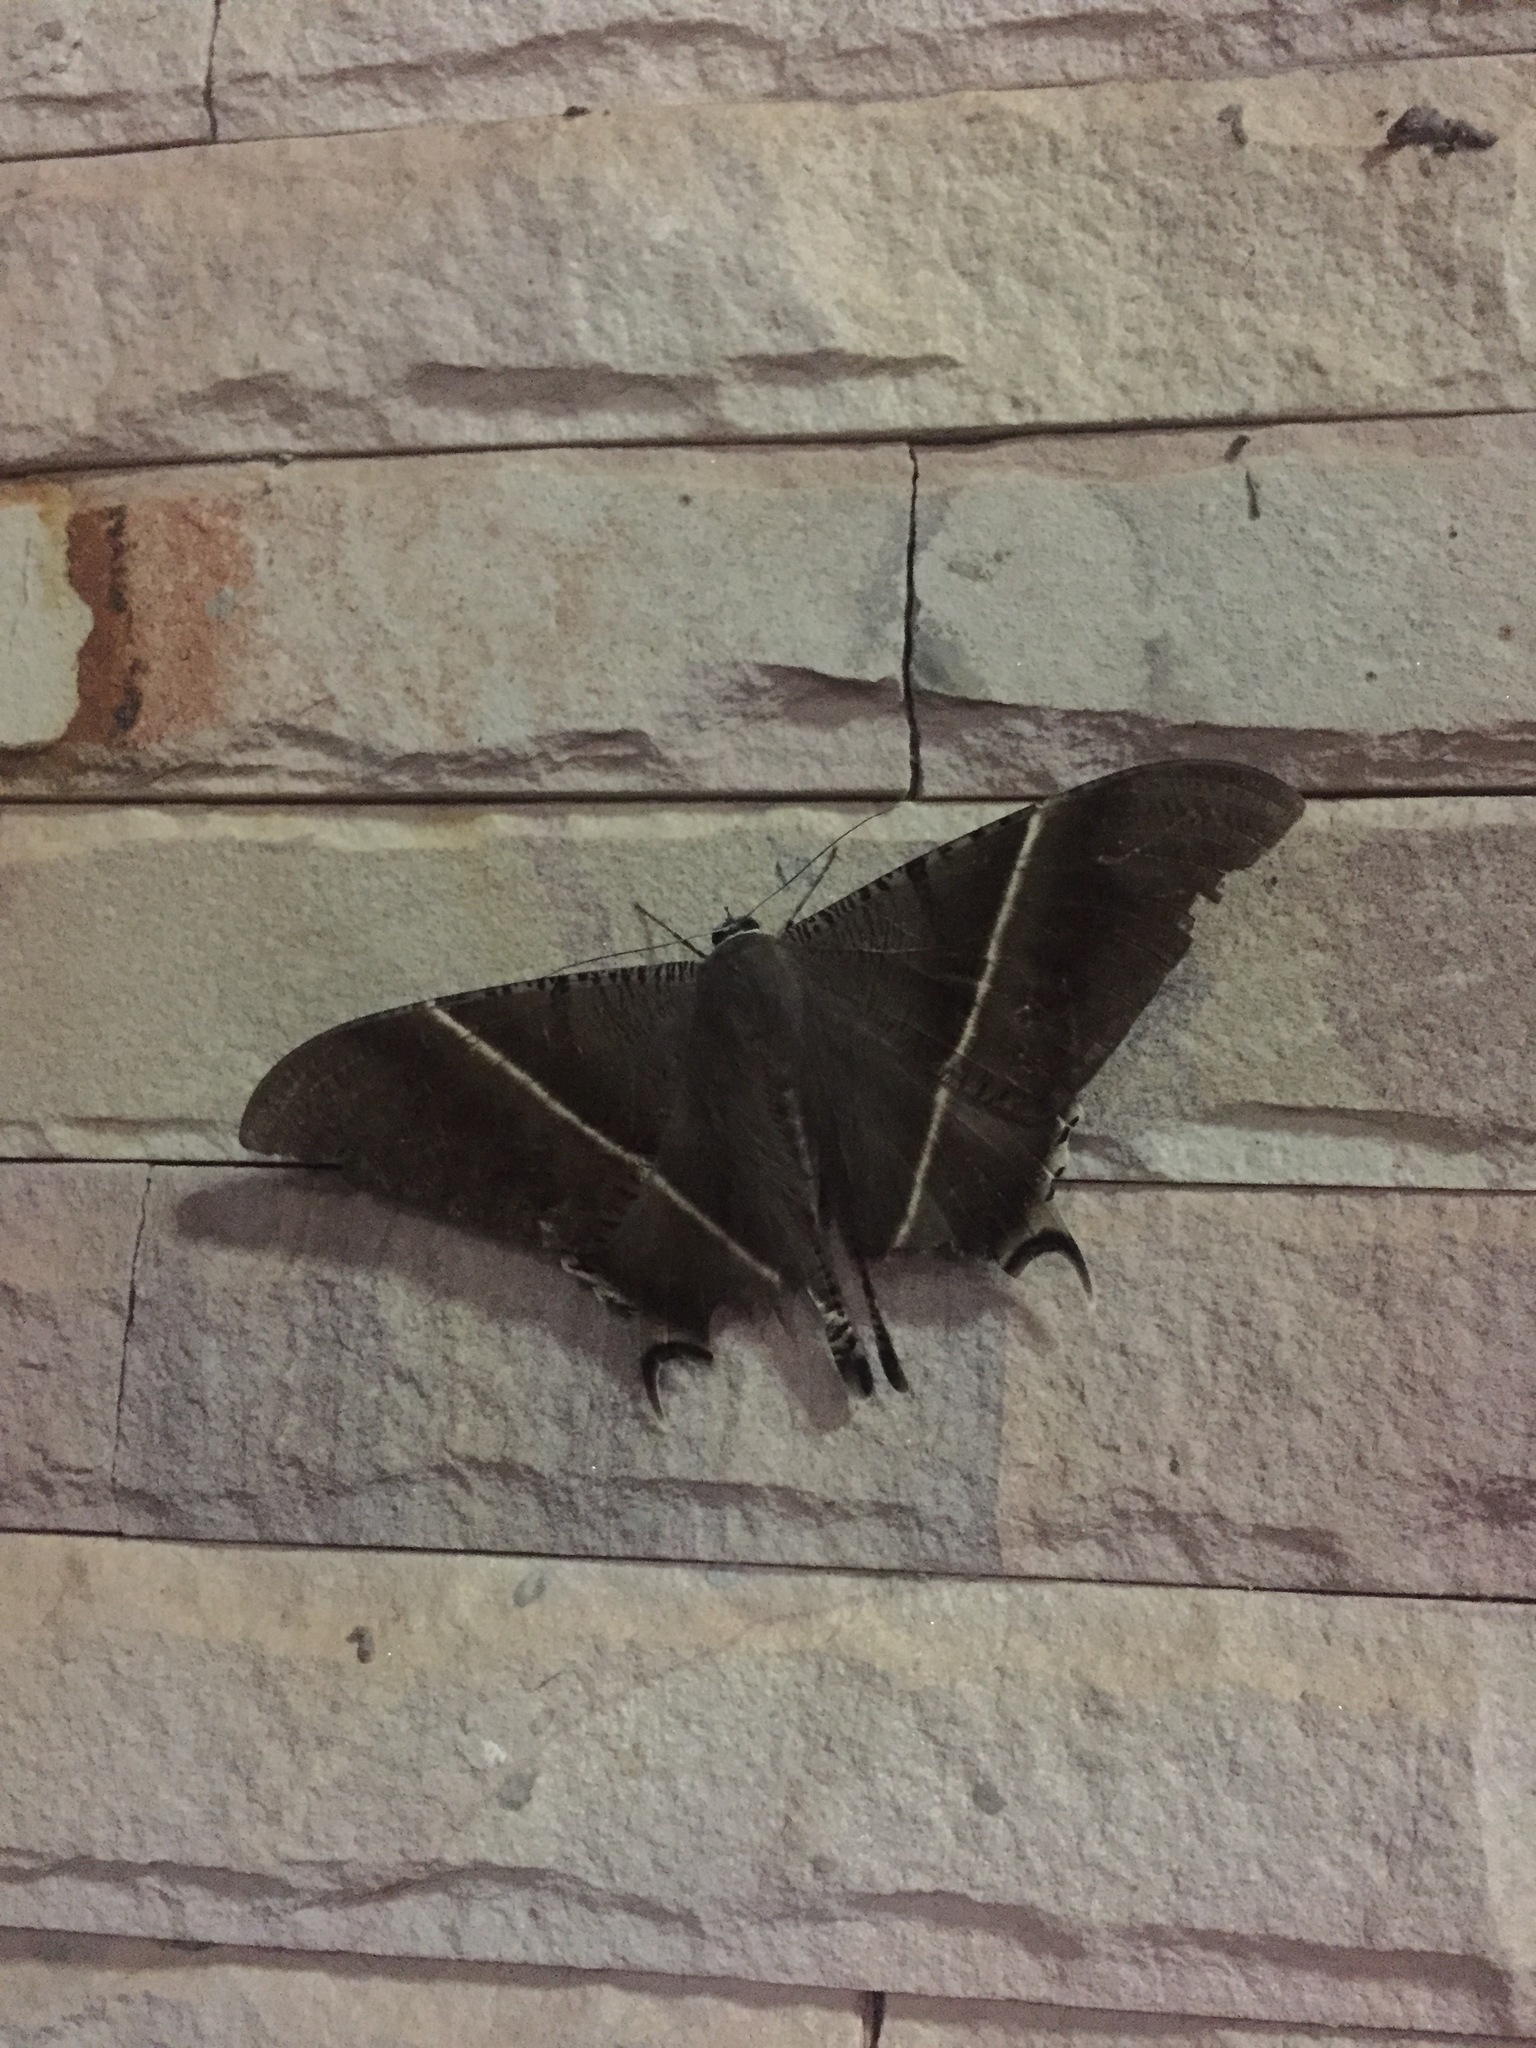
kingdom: Animalia
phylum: Arthropoda
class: Insecta
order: Lepidoptera
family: Uraniidae
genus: Lyssa
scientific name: Lyssa zampa
